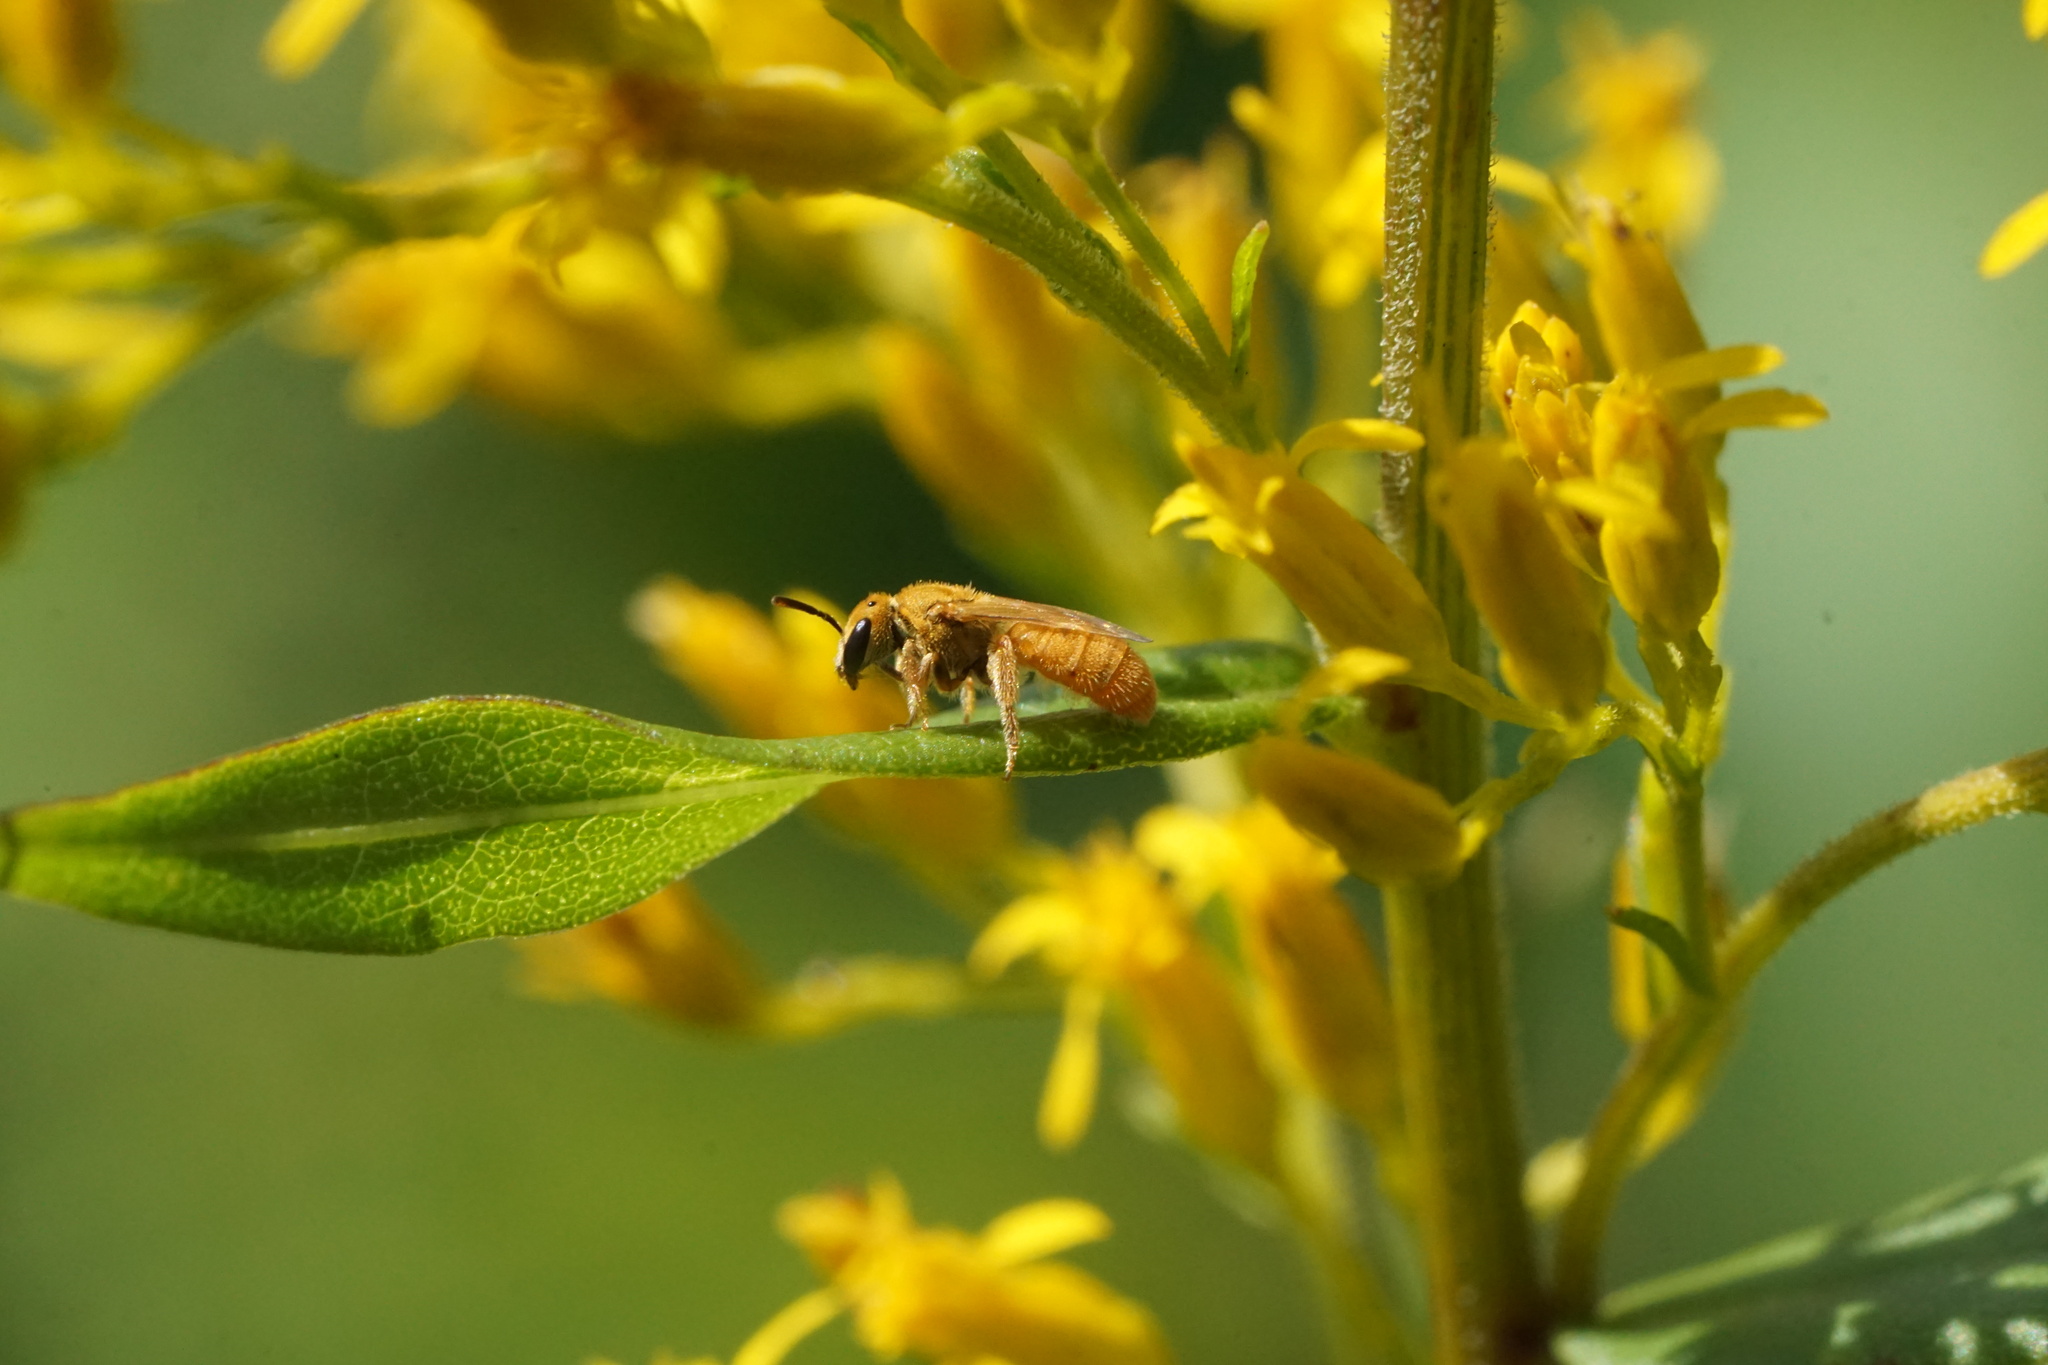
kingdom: Animalia
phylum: Arthropoda
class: Insecta
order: Hymenoptera
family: Halictidae
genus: Lasioglossum
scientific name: Lasioglossum vierecki
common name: Viereck's sweat bee
